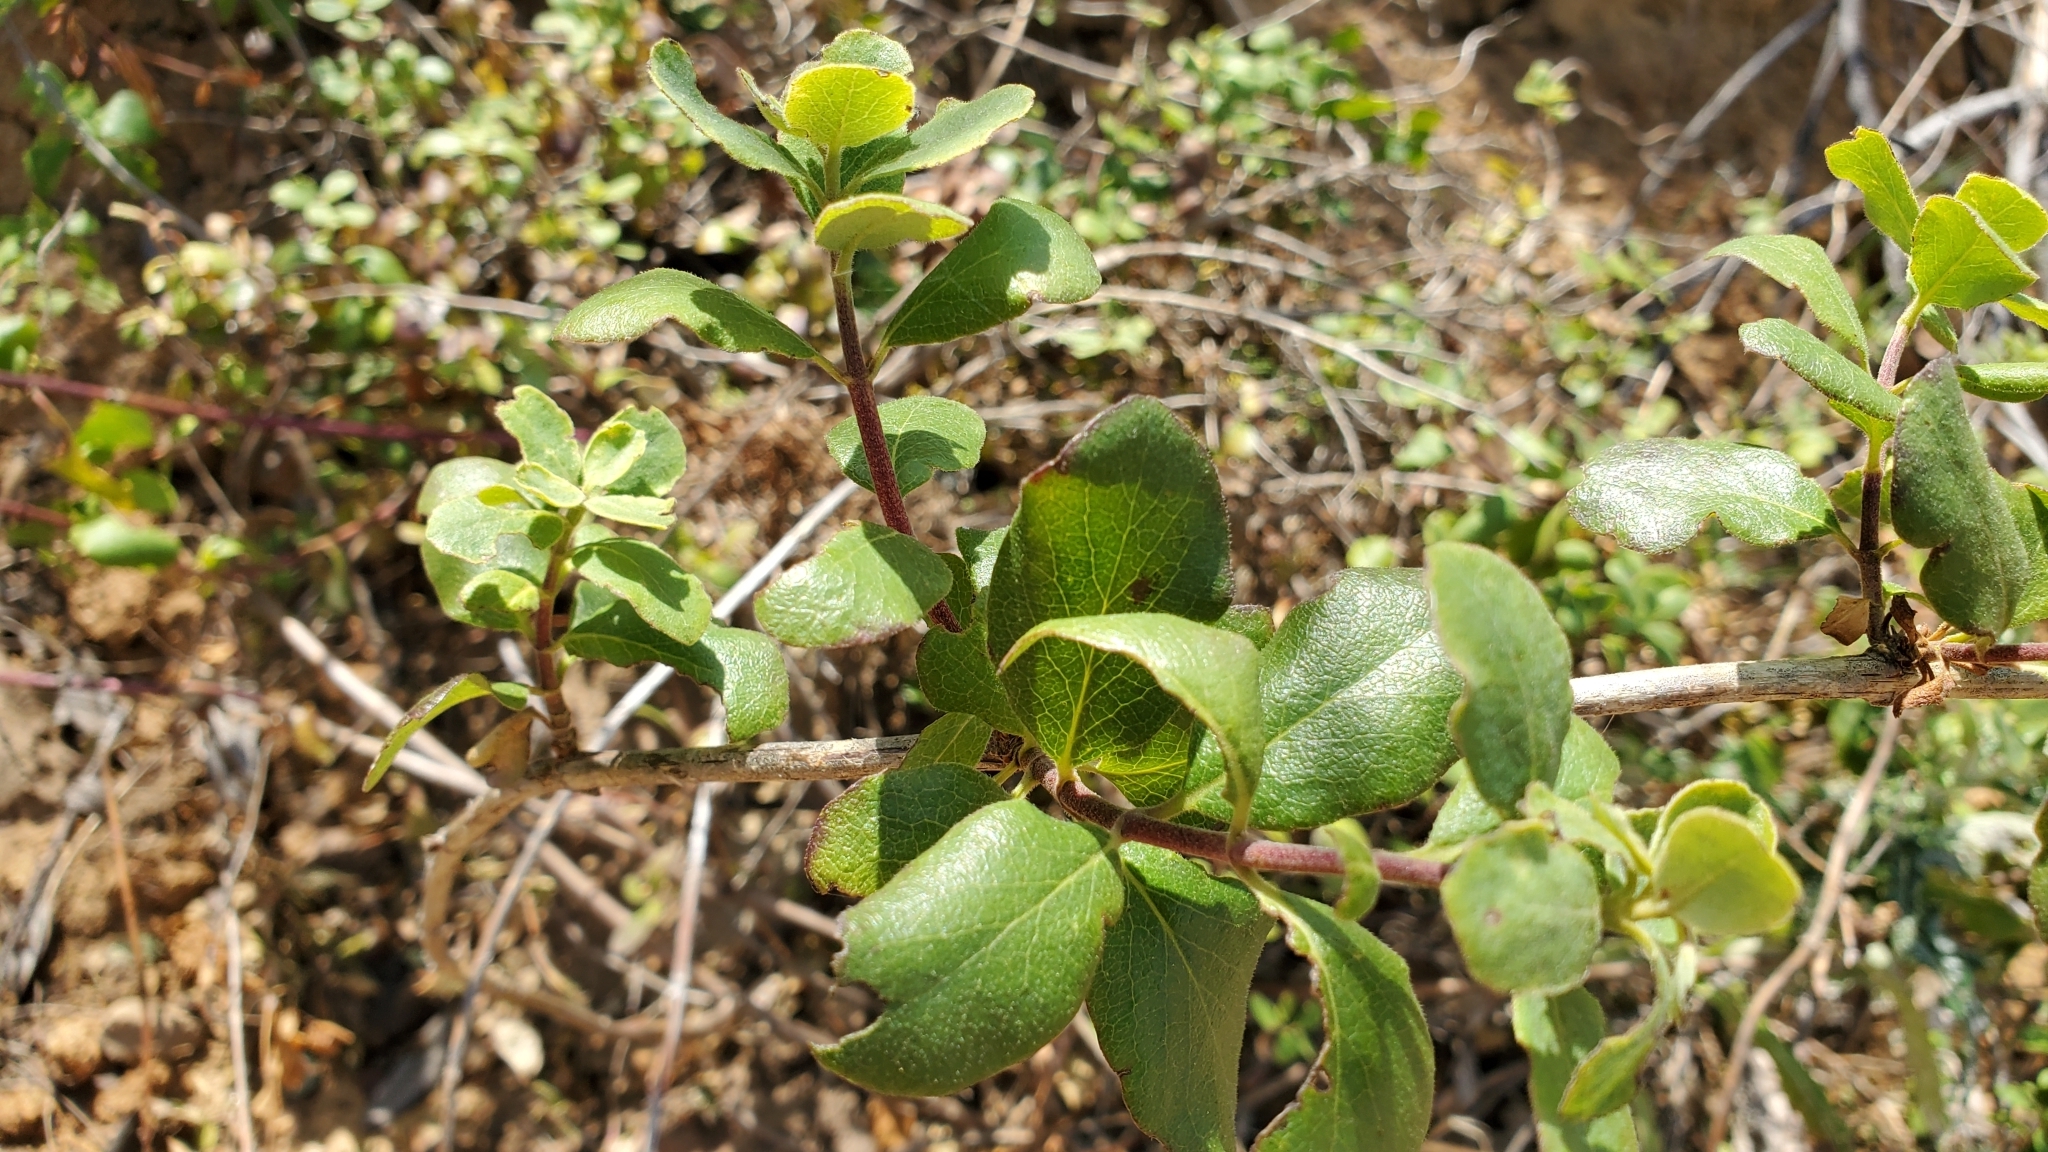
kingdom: Plantae
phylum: Tracheophyta
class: Magnoliopsida
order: Dipsacales
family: Caprifoliaceae
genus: Lonicera
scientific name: Lonicera subspicata
